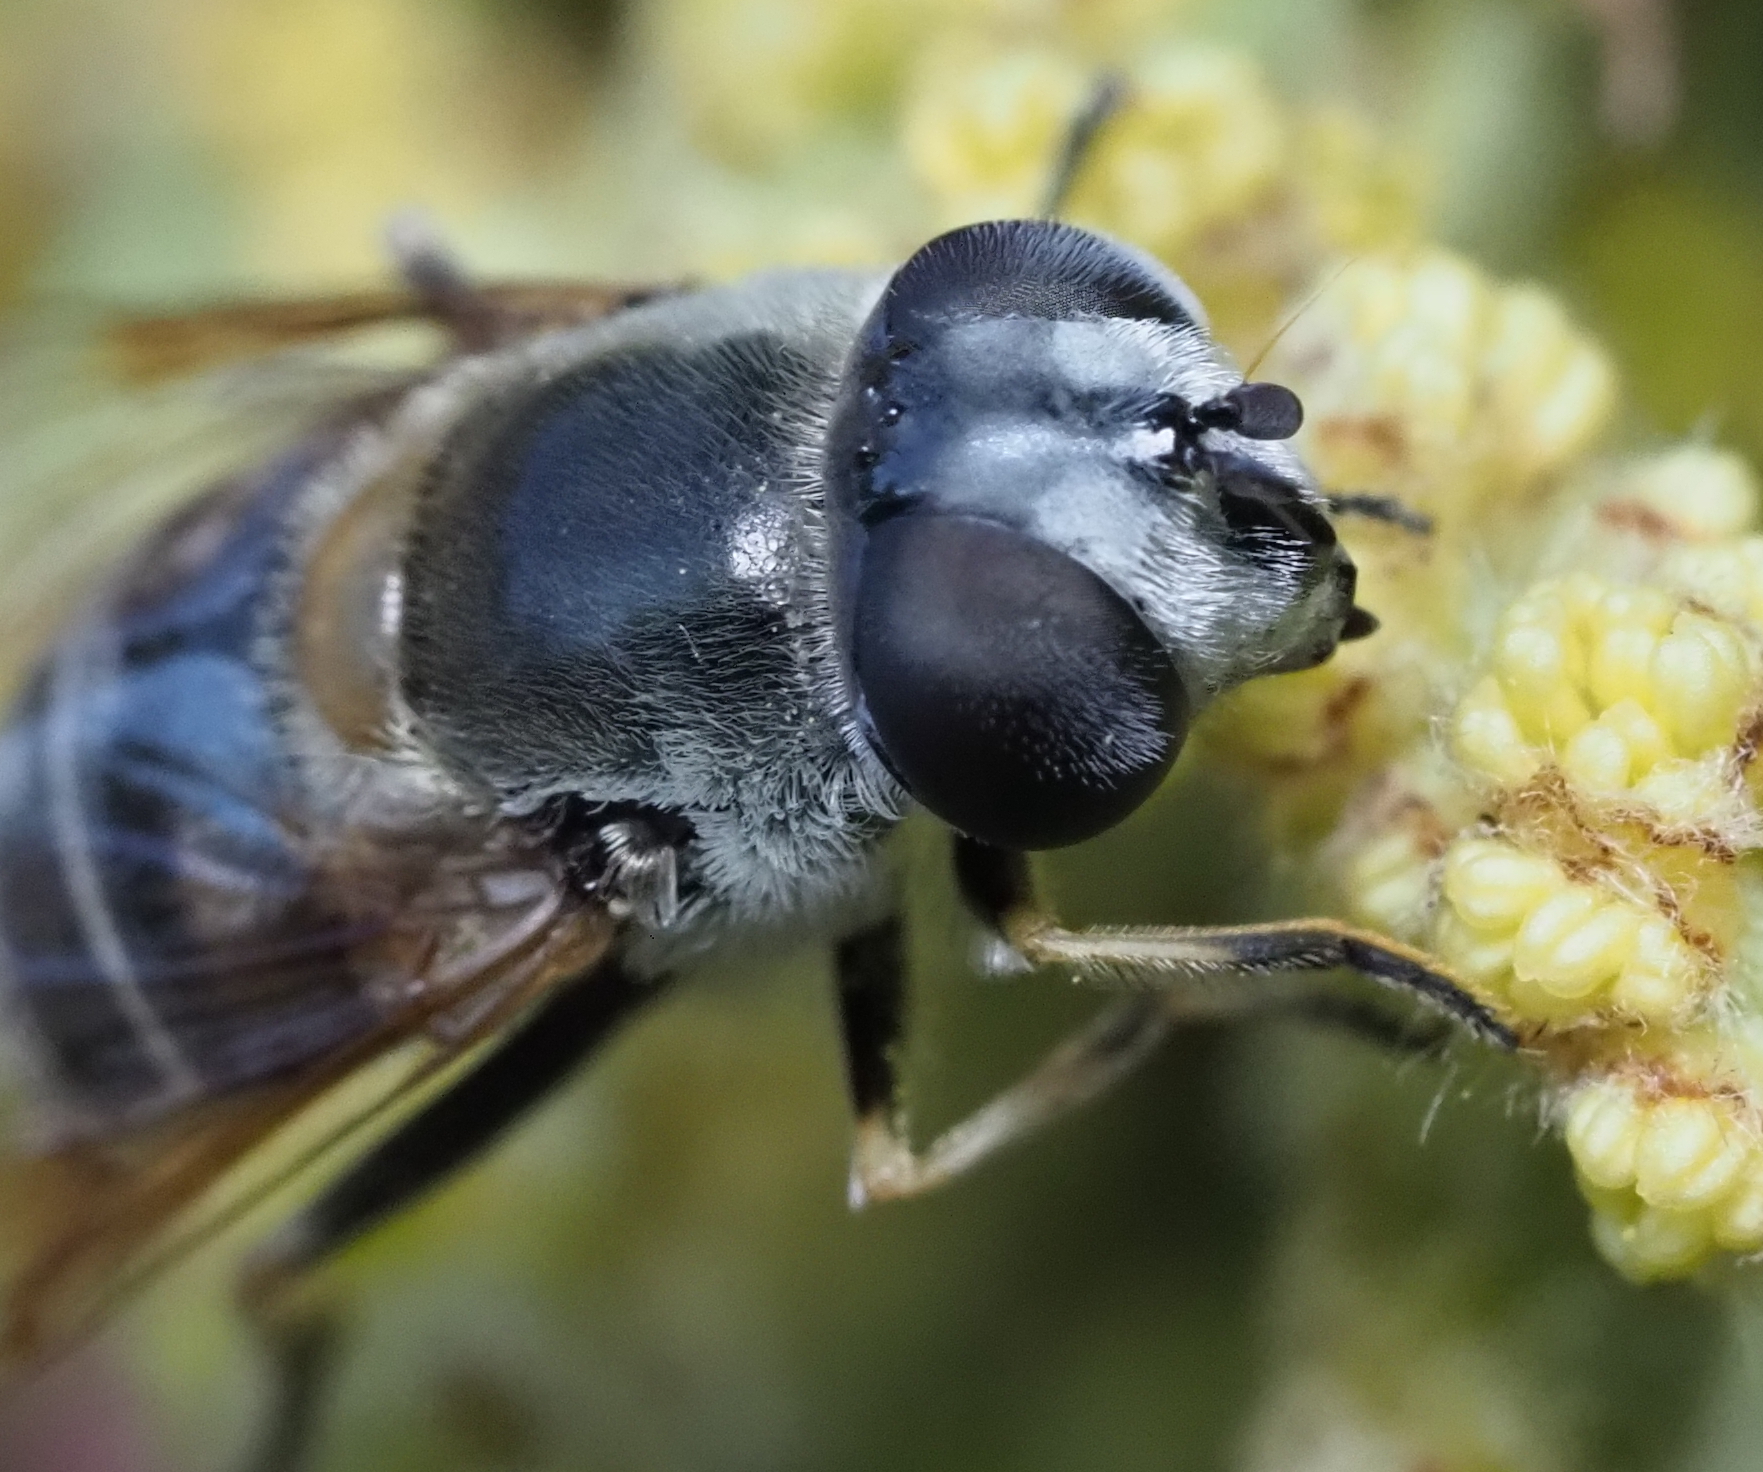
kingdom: Animalia
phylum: Arthropoda
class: Insecta
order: Diptera
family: Syrphidae
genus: Eristalis
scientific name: Eristalis stipator
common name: Yellow-shouldered drone fly
